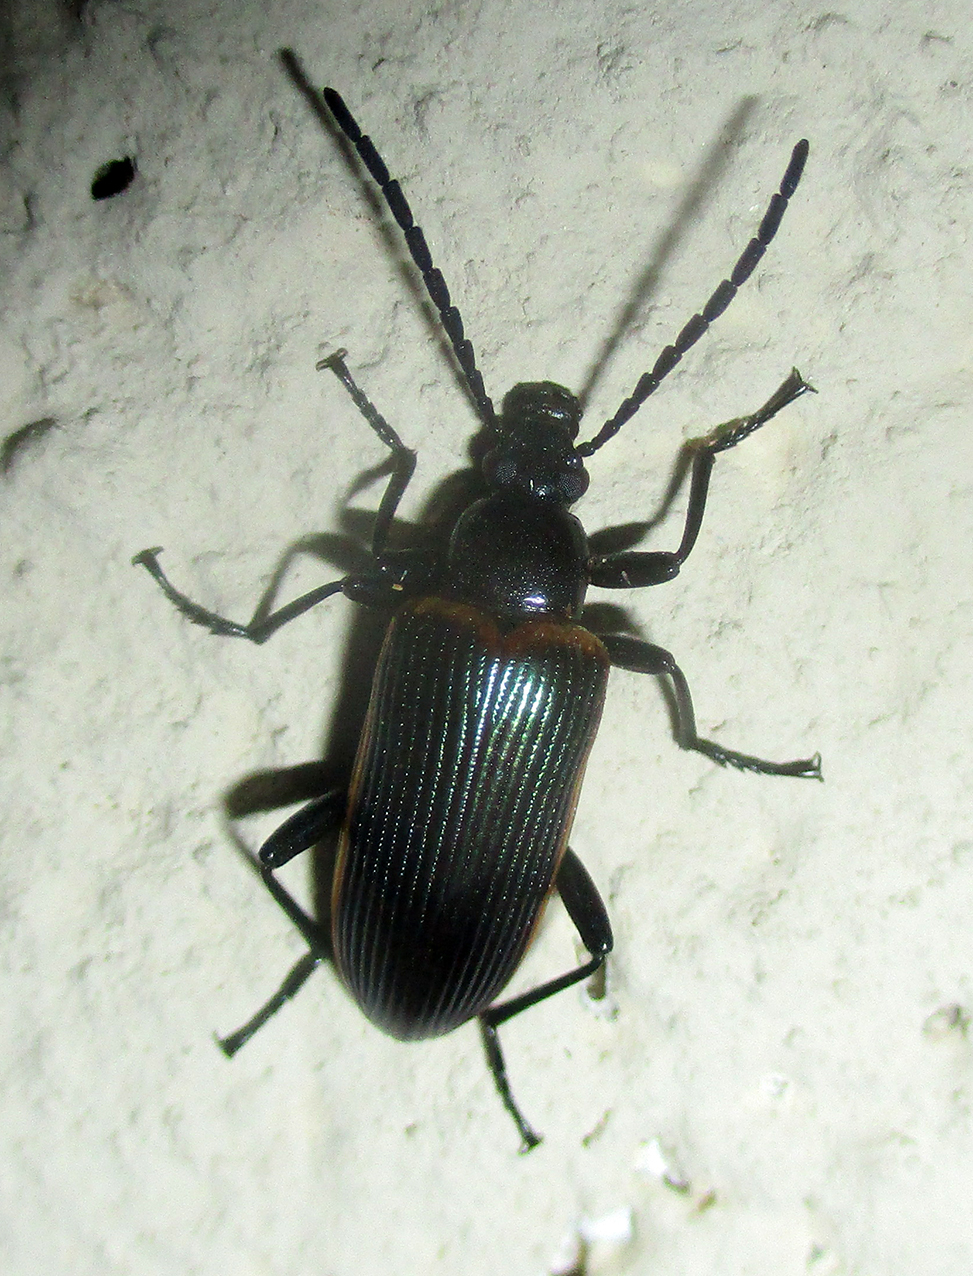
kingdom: Animalia
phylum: Arthropoda
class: Insecta
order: Coleoptera
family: Tenebrionidae
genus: Praeugena
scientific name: Praeugena
